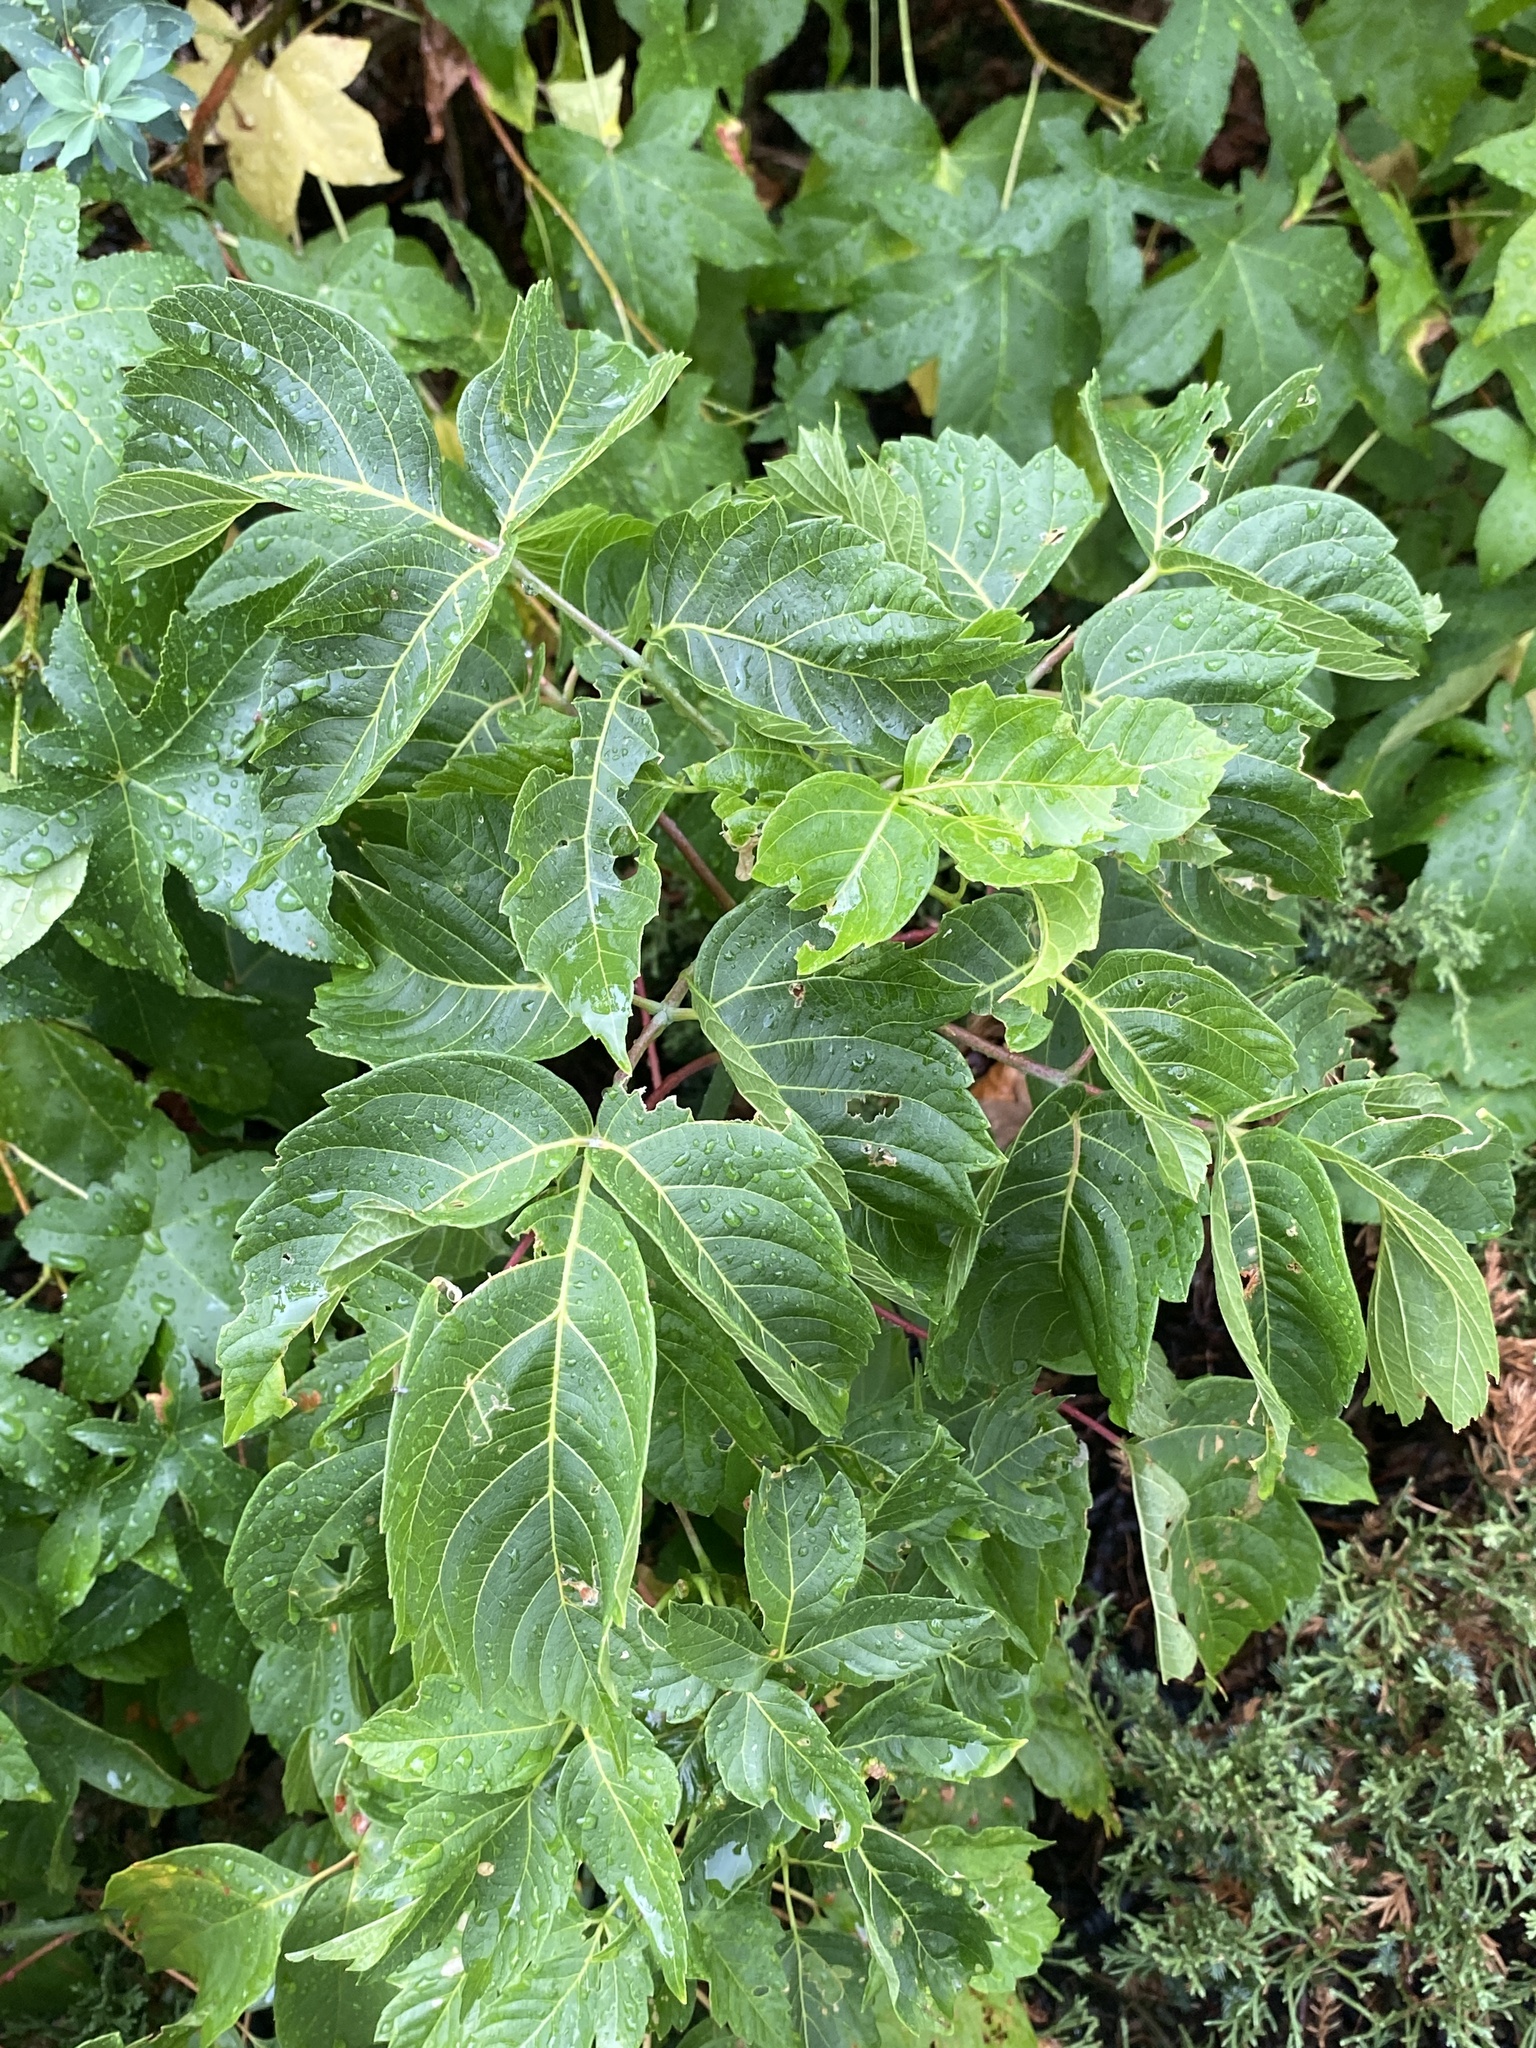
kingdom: Plantae
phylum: Tracheophyta
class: Magnoliopsida
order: Sapindales
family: Sapindaceae
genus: Acer
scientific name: Acer negundo
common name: Ashleaf maple
